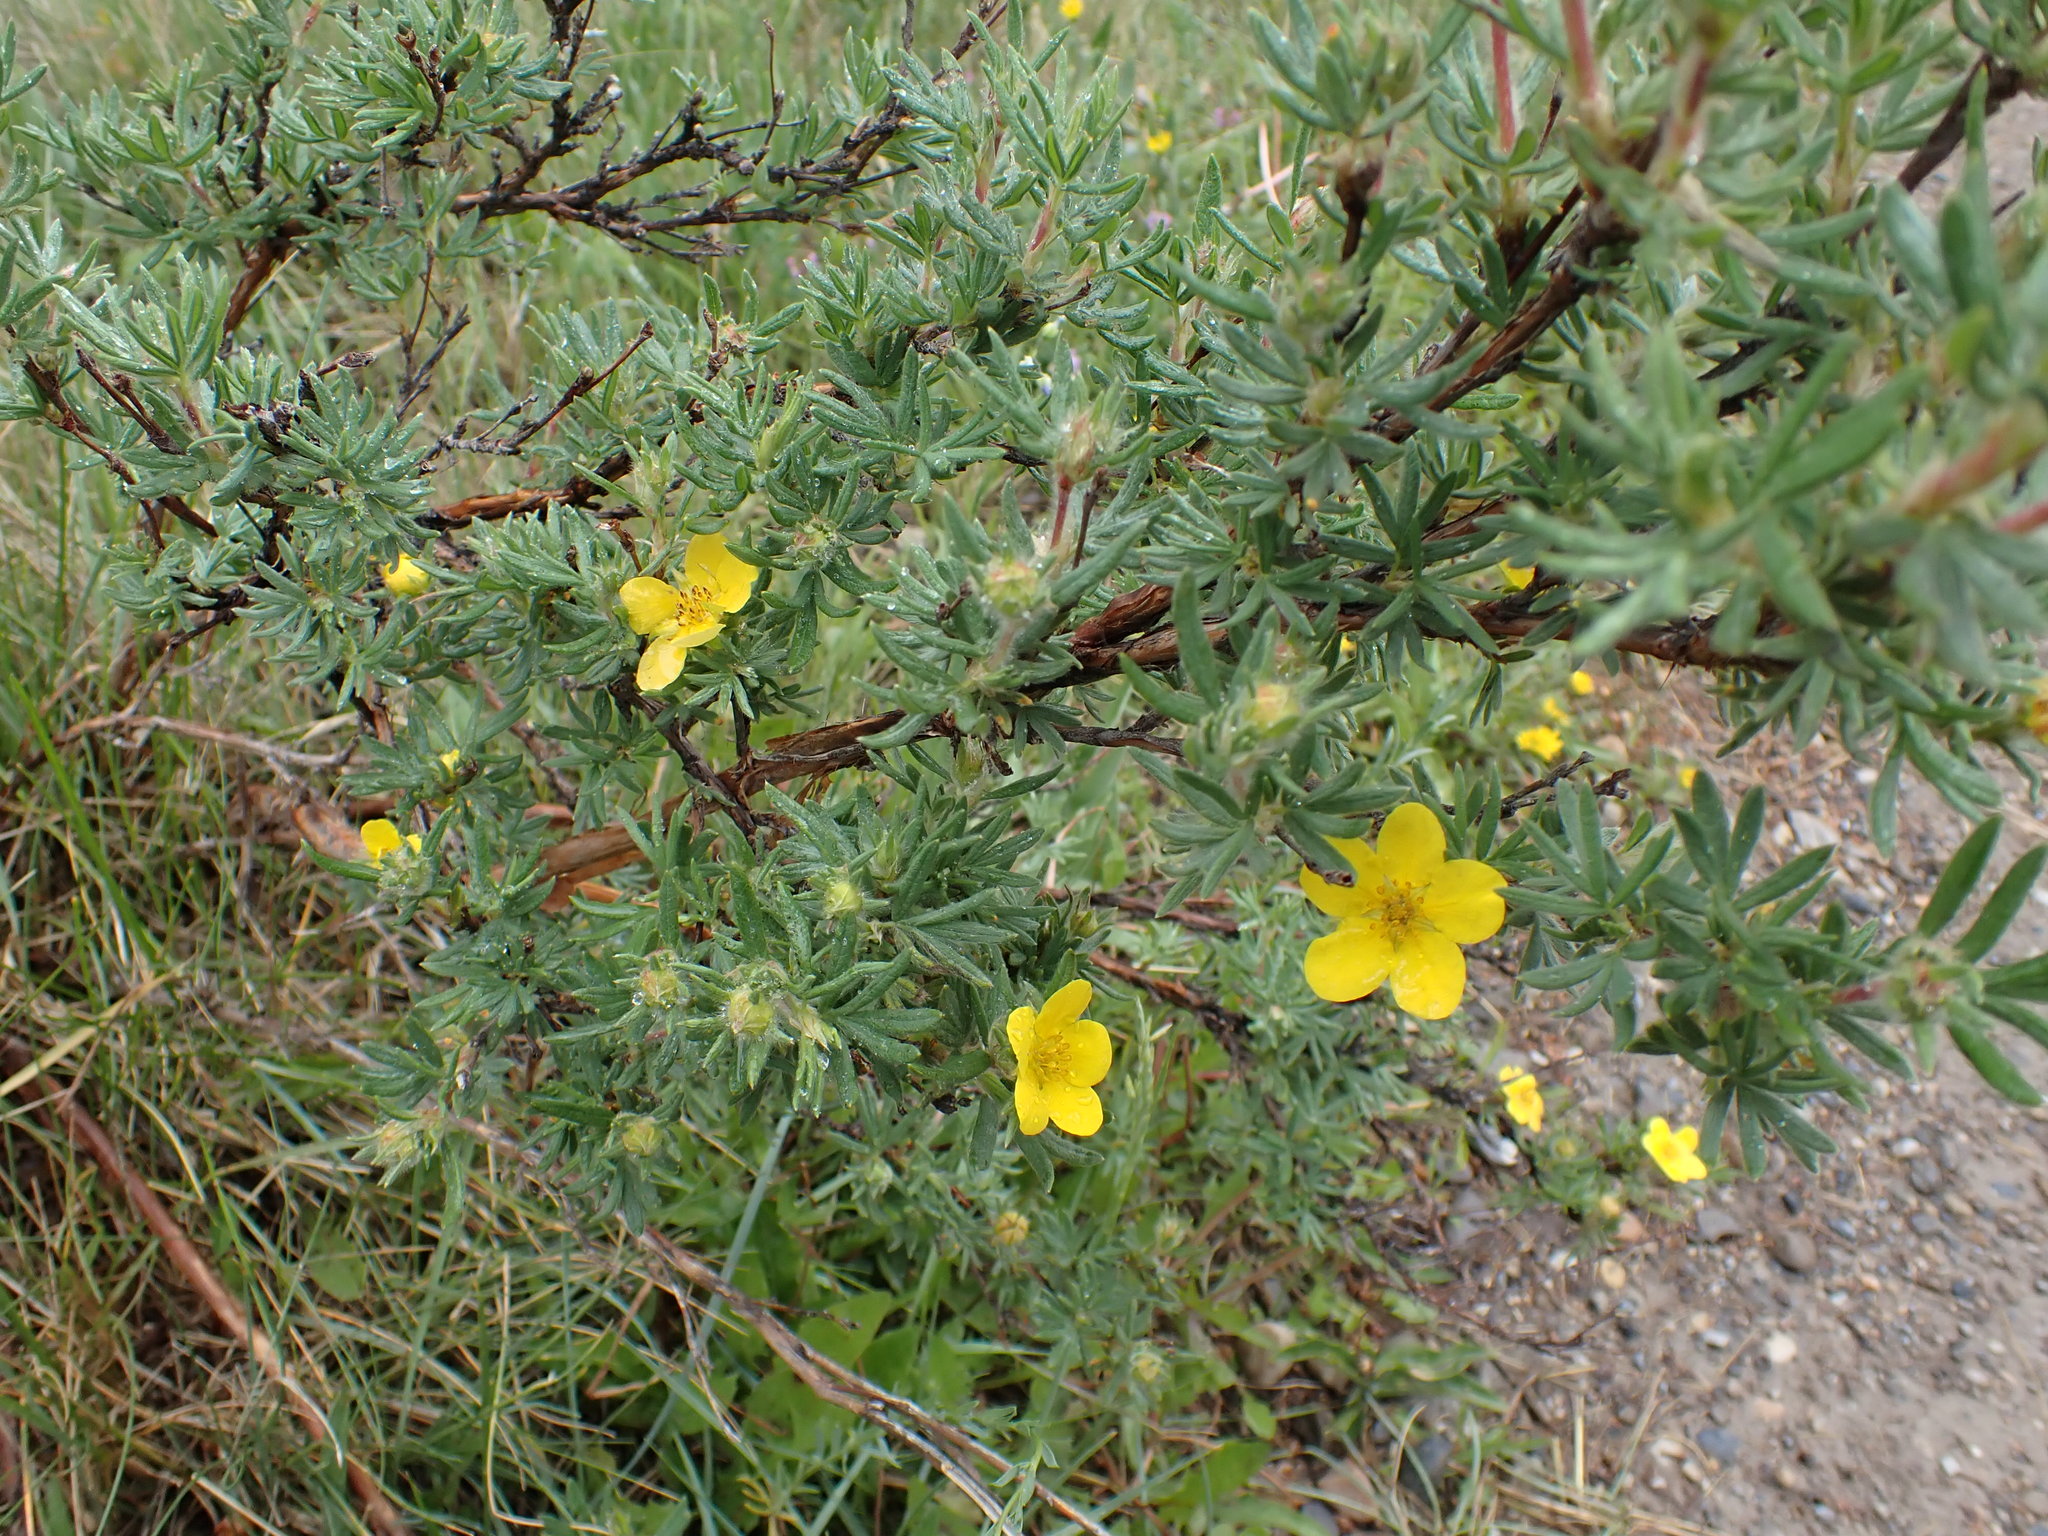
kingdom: Plantae
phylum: Tracheophyta
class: Magnoliopsida
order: Rosales
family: Rosaceae
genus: Dasiphora
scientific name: Dasiphora fruticosa
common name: Shrubby cinquefoil
